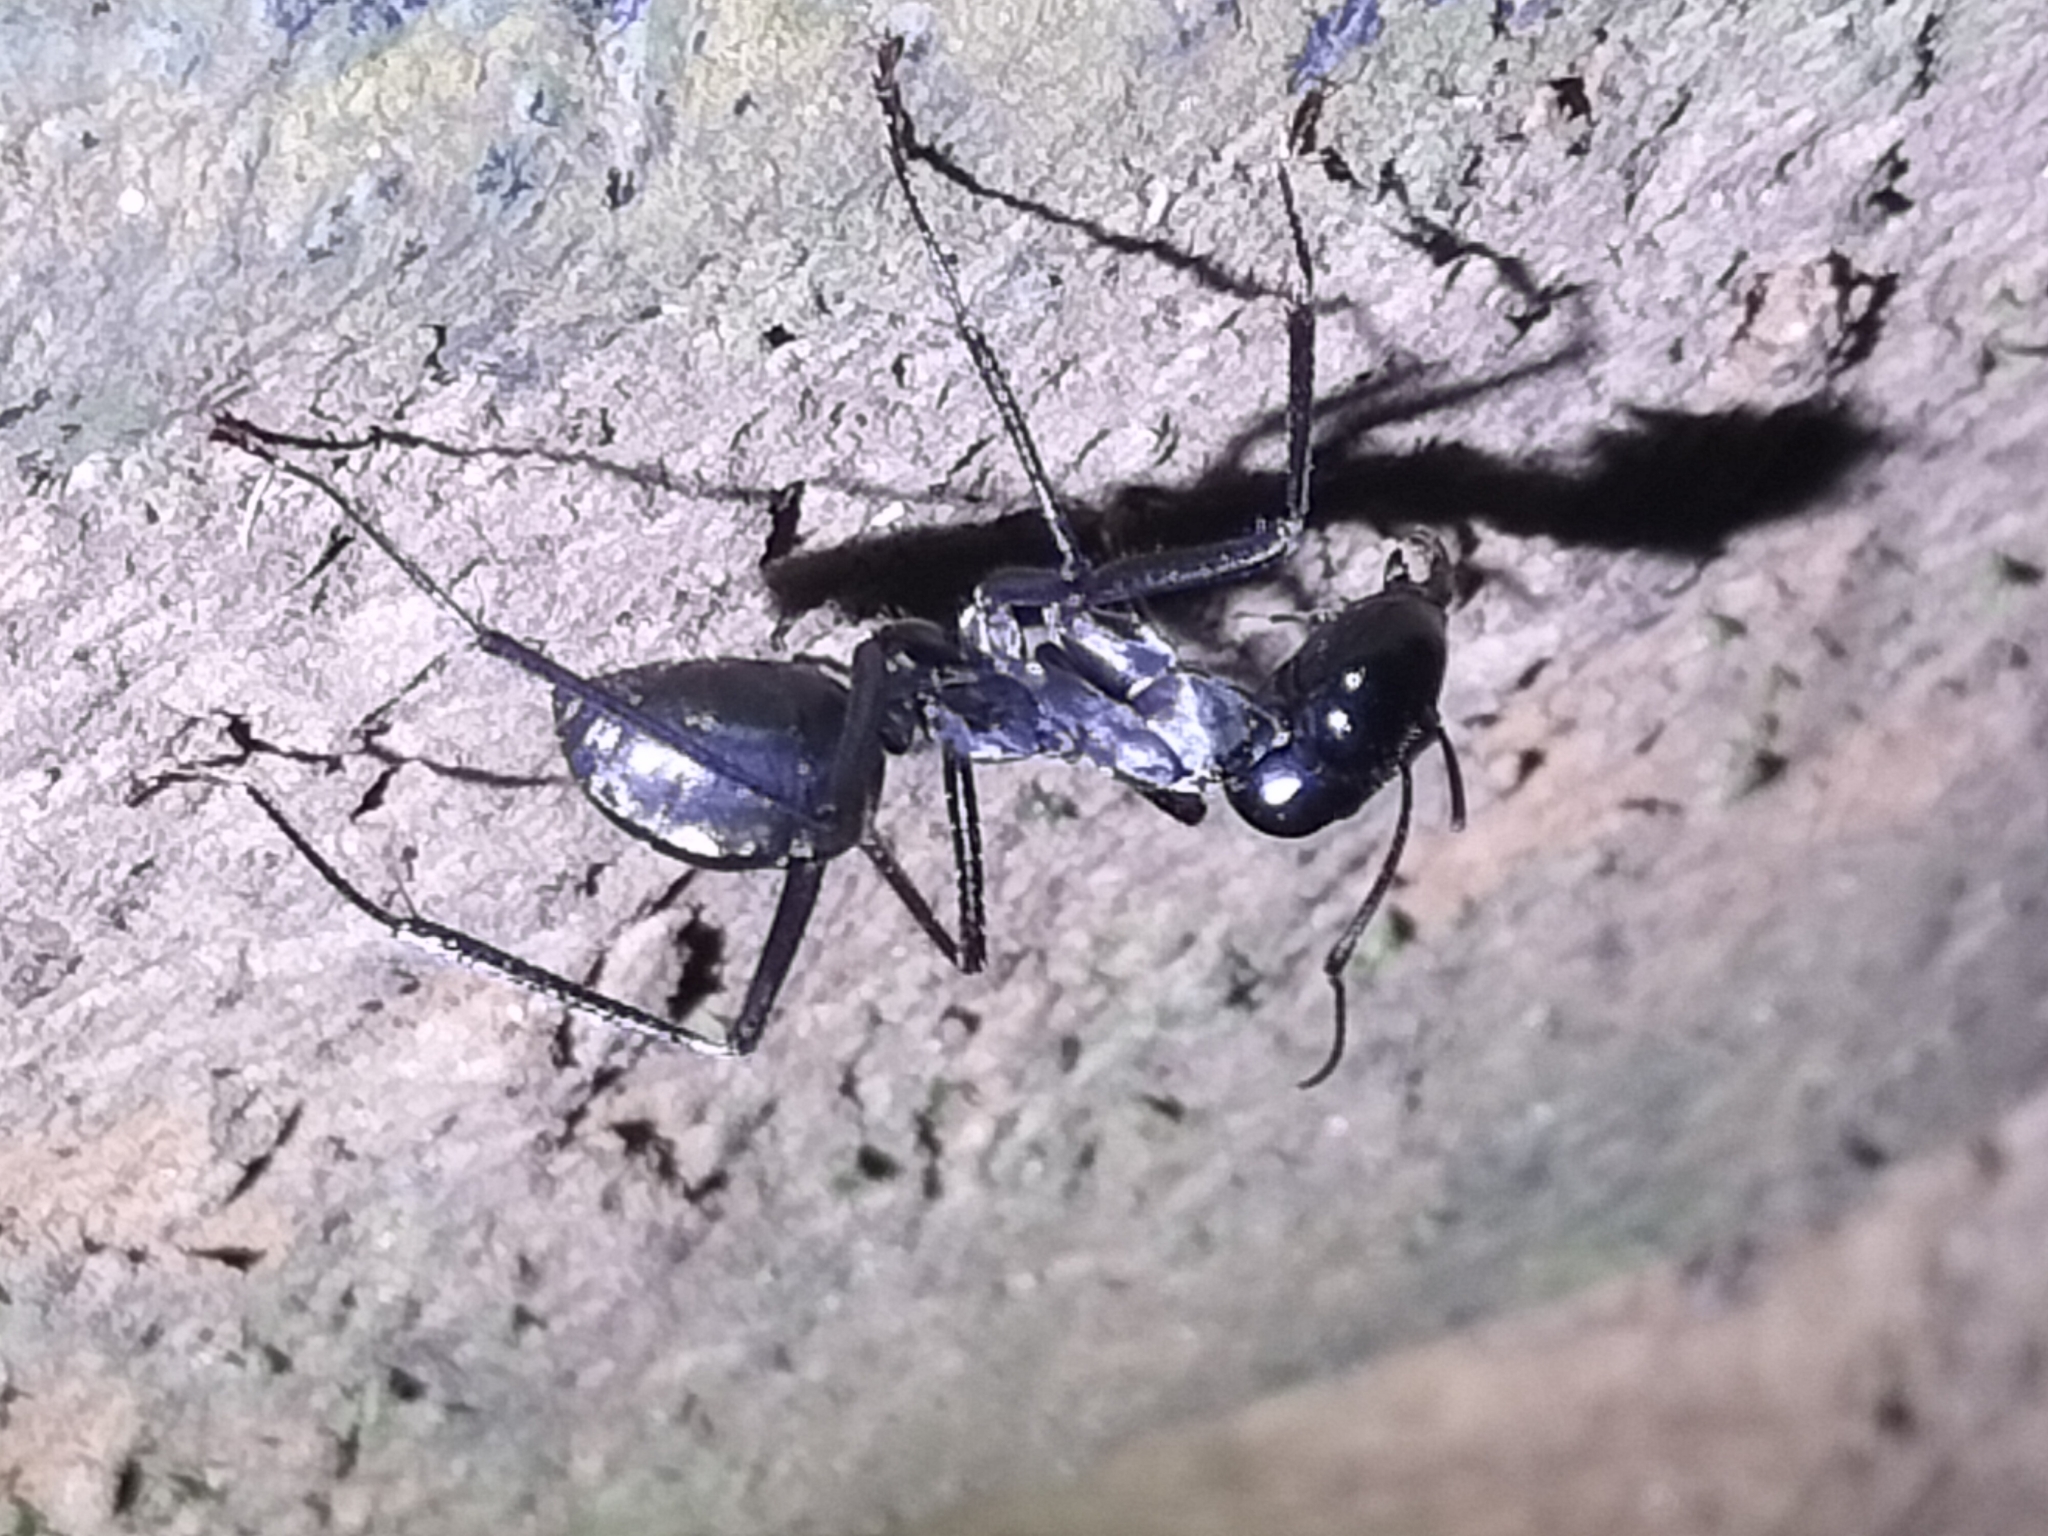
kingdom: Animalia
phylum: Arthropoda
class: Insecta
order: Hymenoptera
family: Formicidae
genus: Notostigma
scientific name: Notostigma carazzii
